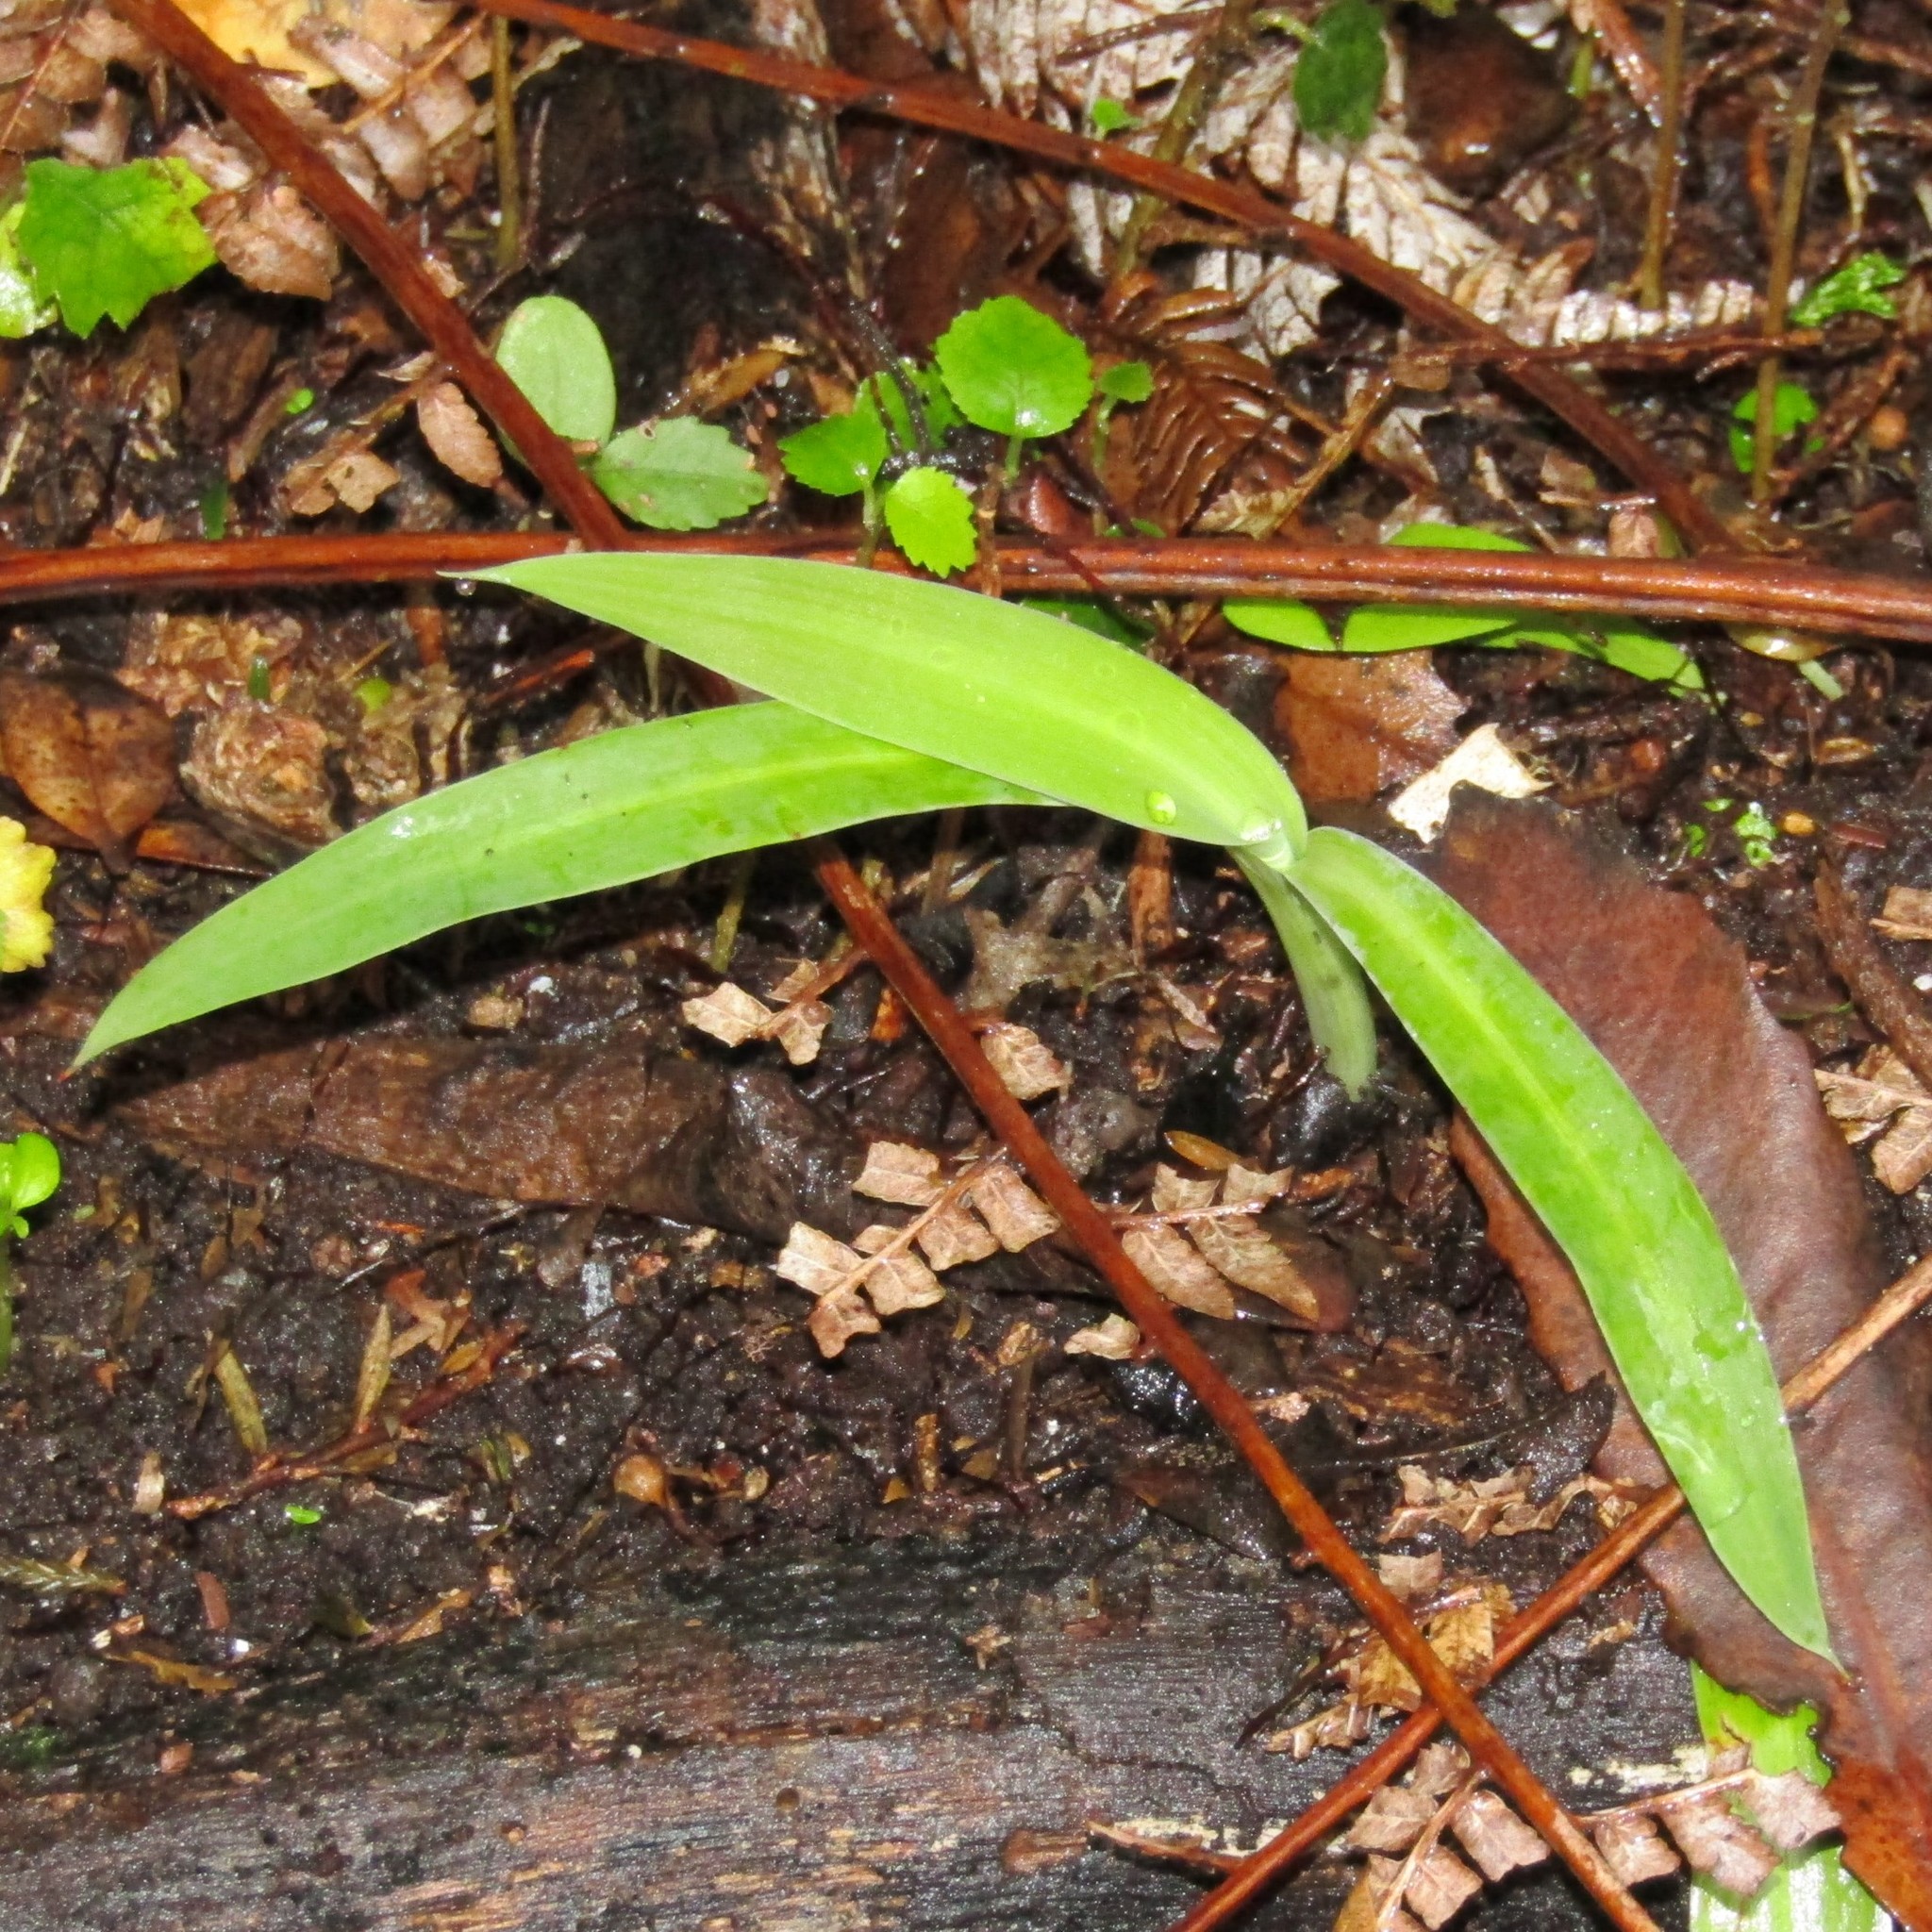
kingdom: Plantae
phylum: Tracheophyta
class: Liliopsida
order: Asparagales
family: Asparagaceae
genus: Arthropodium
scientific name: Arthropodium cirratum
